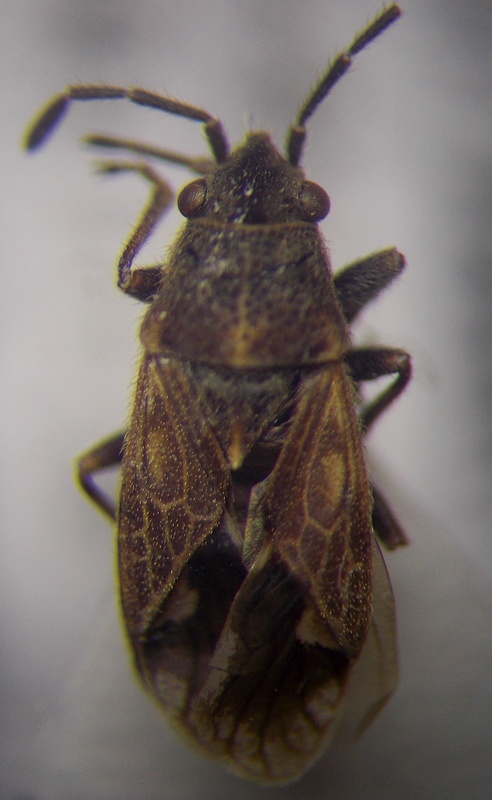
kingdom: Animalia
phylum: Arthropoda
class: Insecta
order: Hemiptera
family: Lygaeidae
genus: Lygaeosoma
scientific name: Lygaeosoma sardeum
